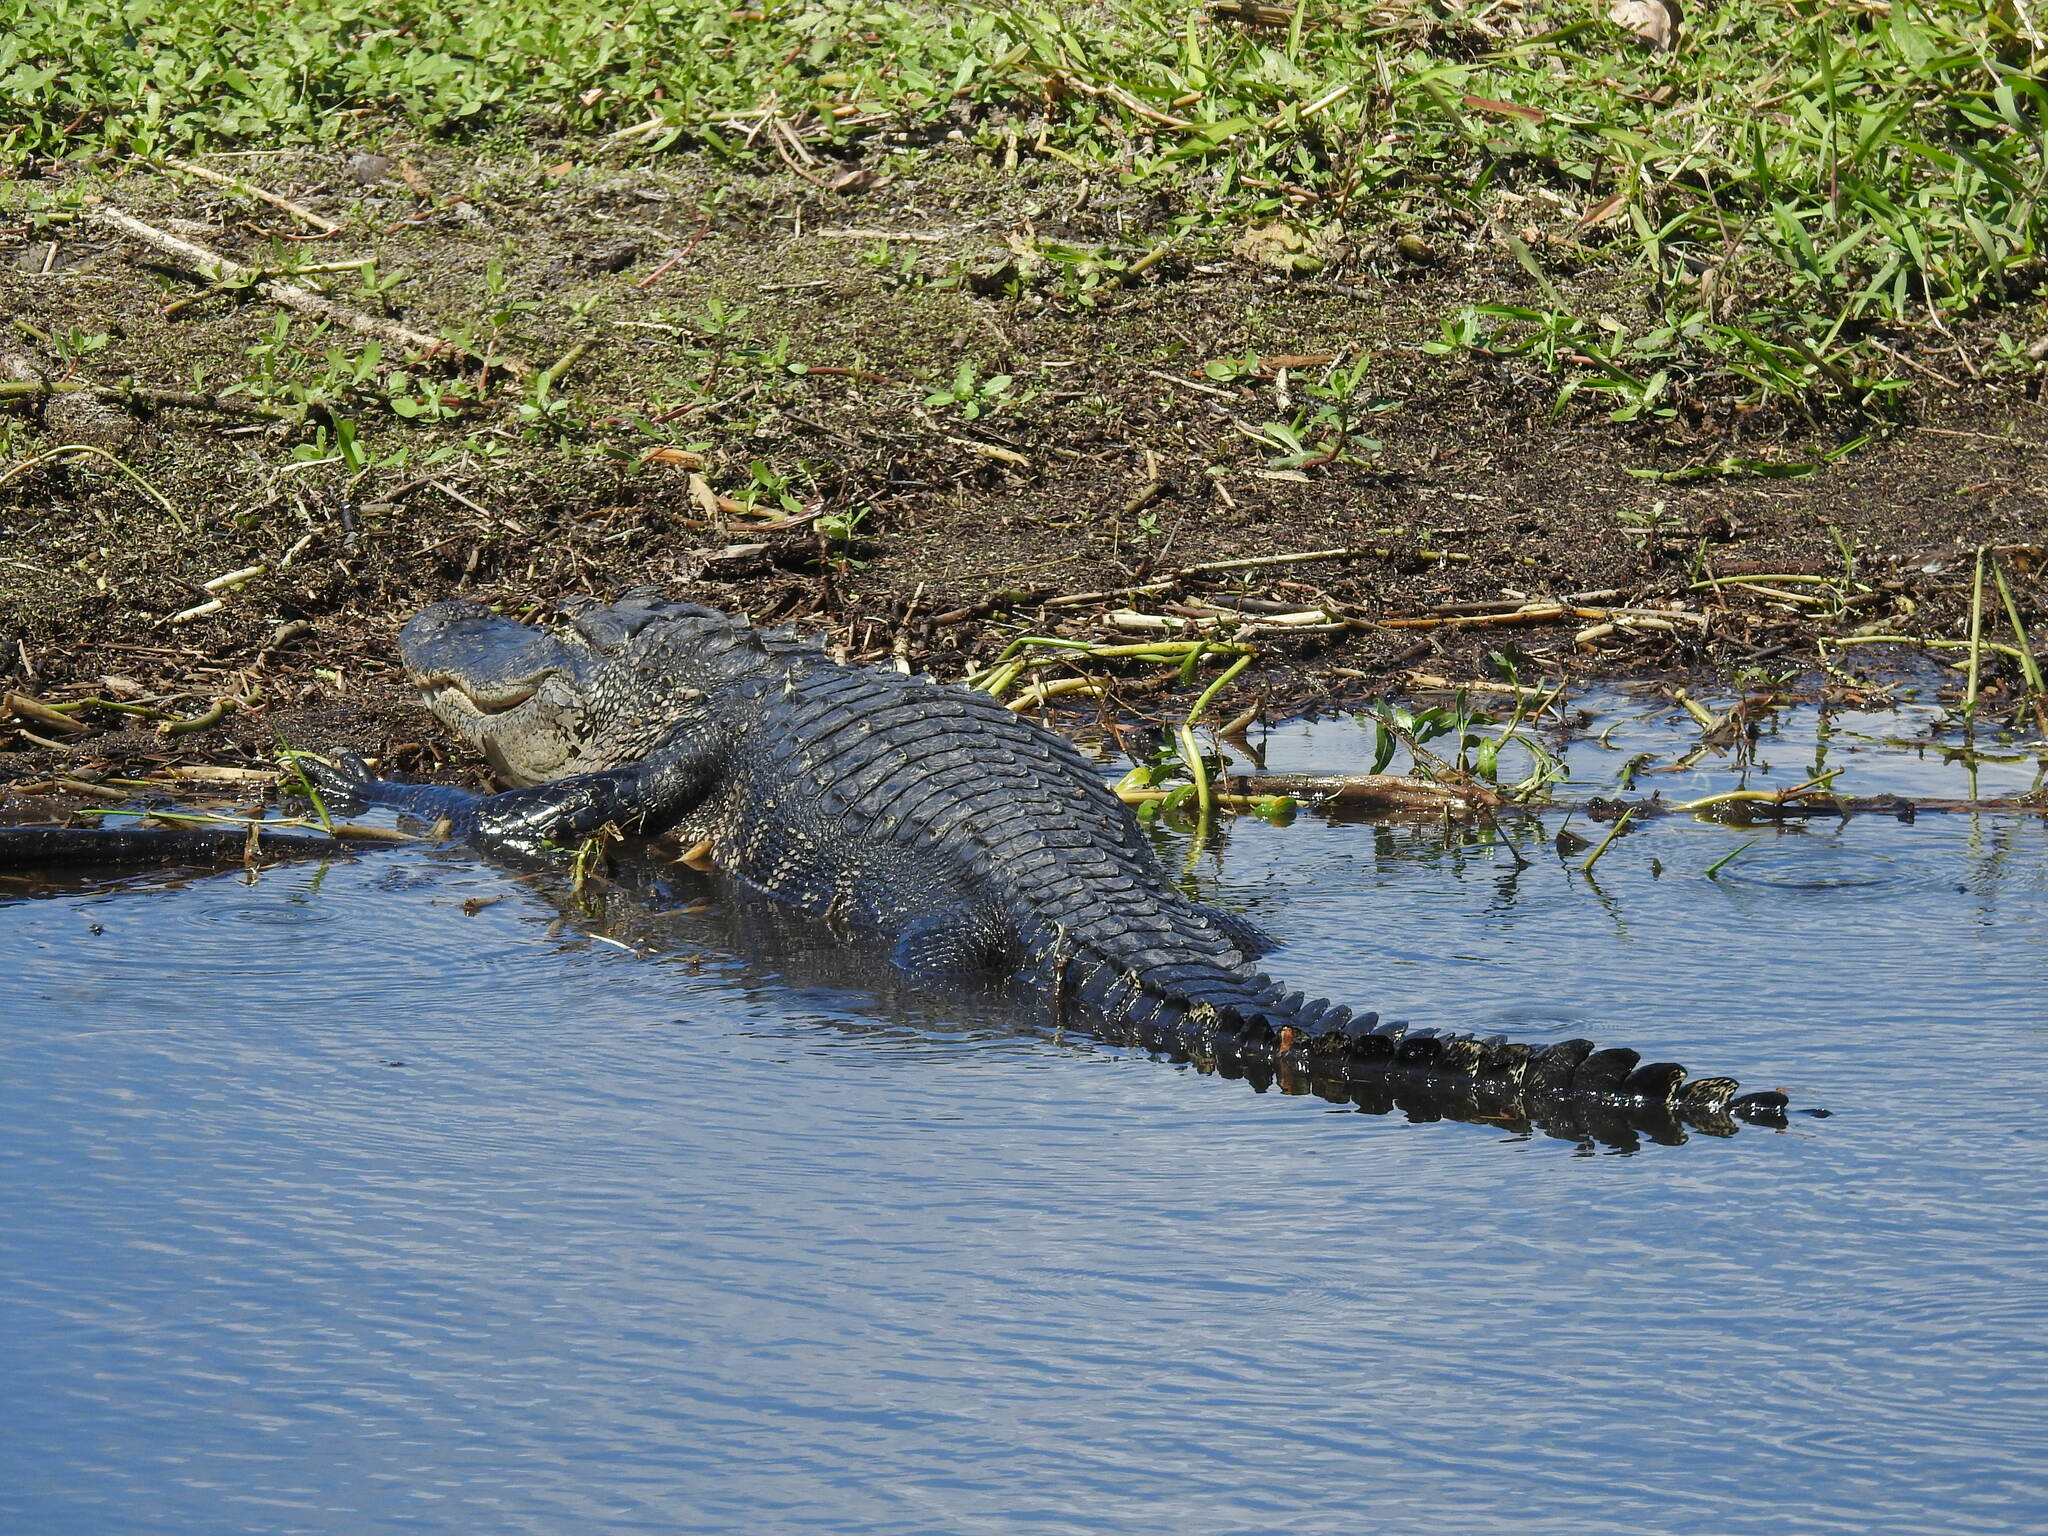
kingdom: Animalia
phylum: Chordata
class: Crocodylia
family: Alligatoridae
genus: Alligator
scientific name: Alligator mississippiensis
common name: American alligator
